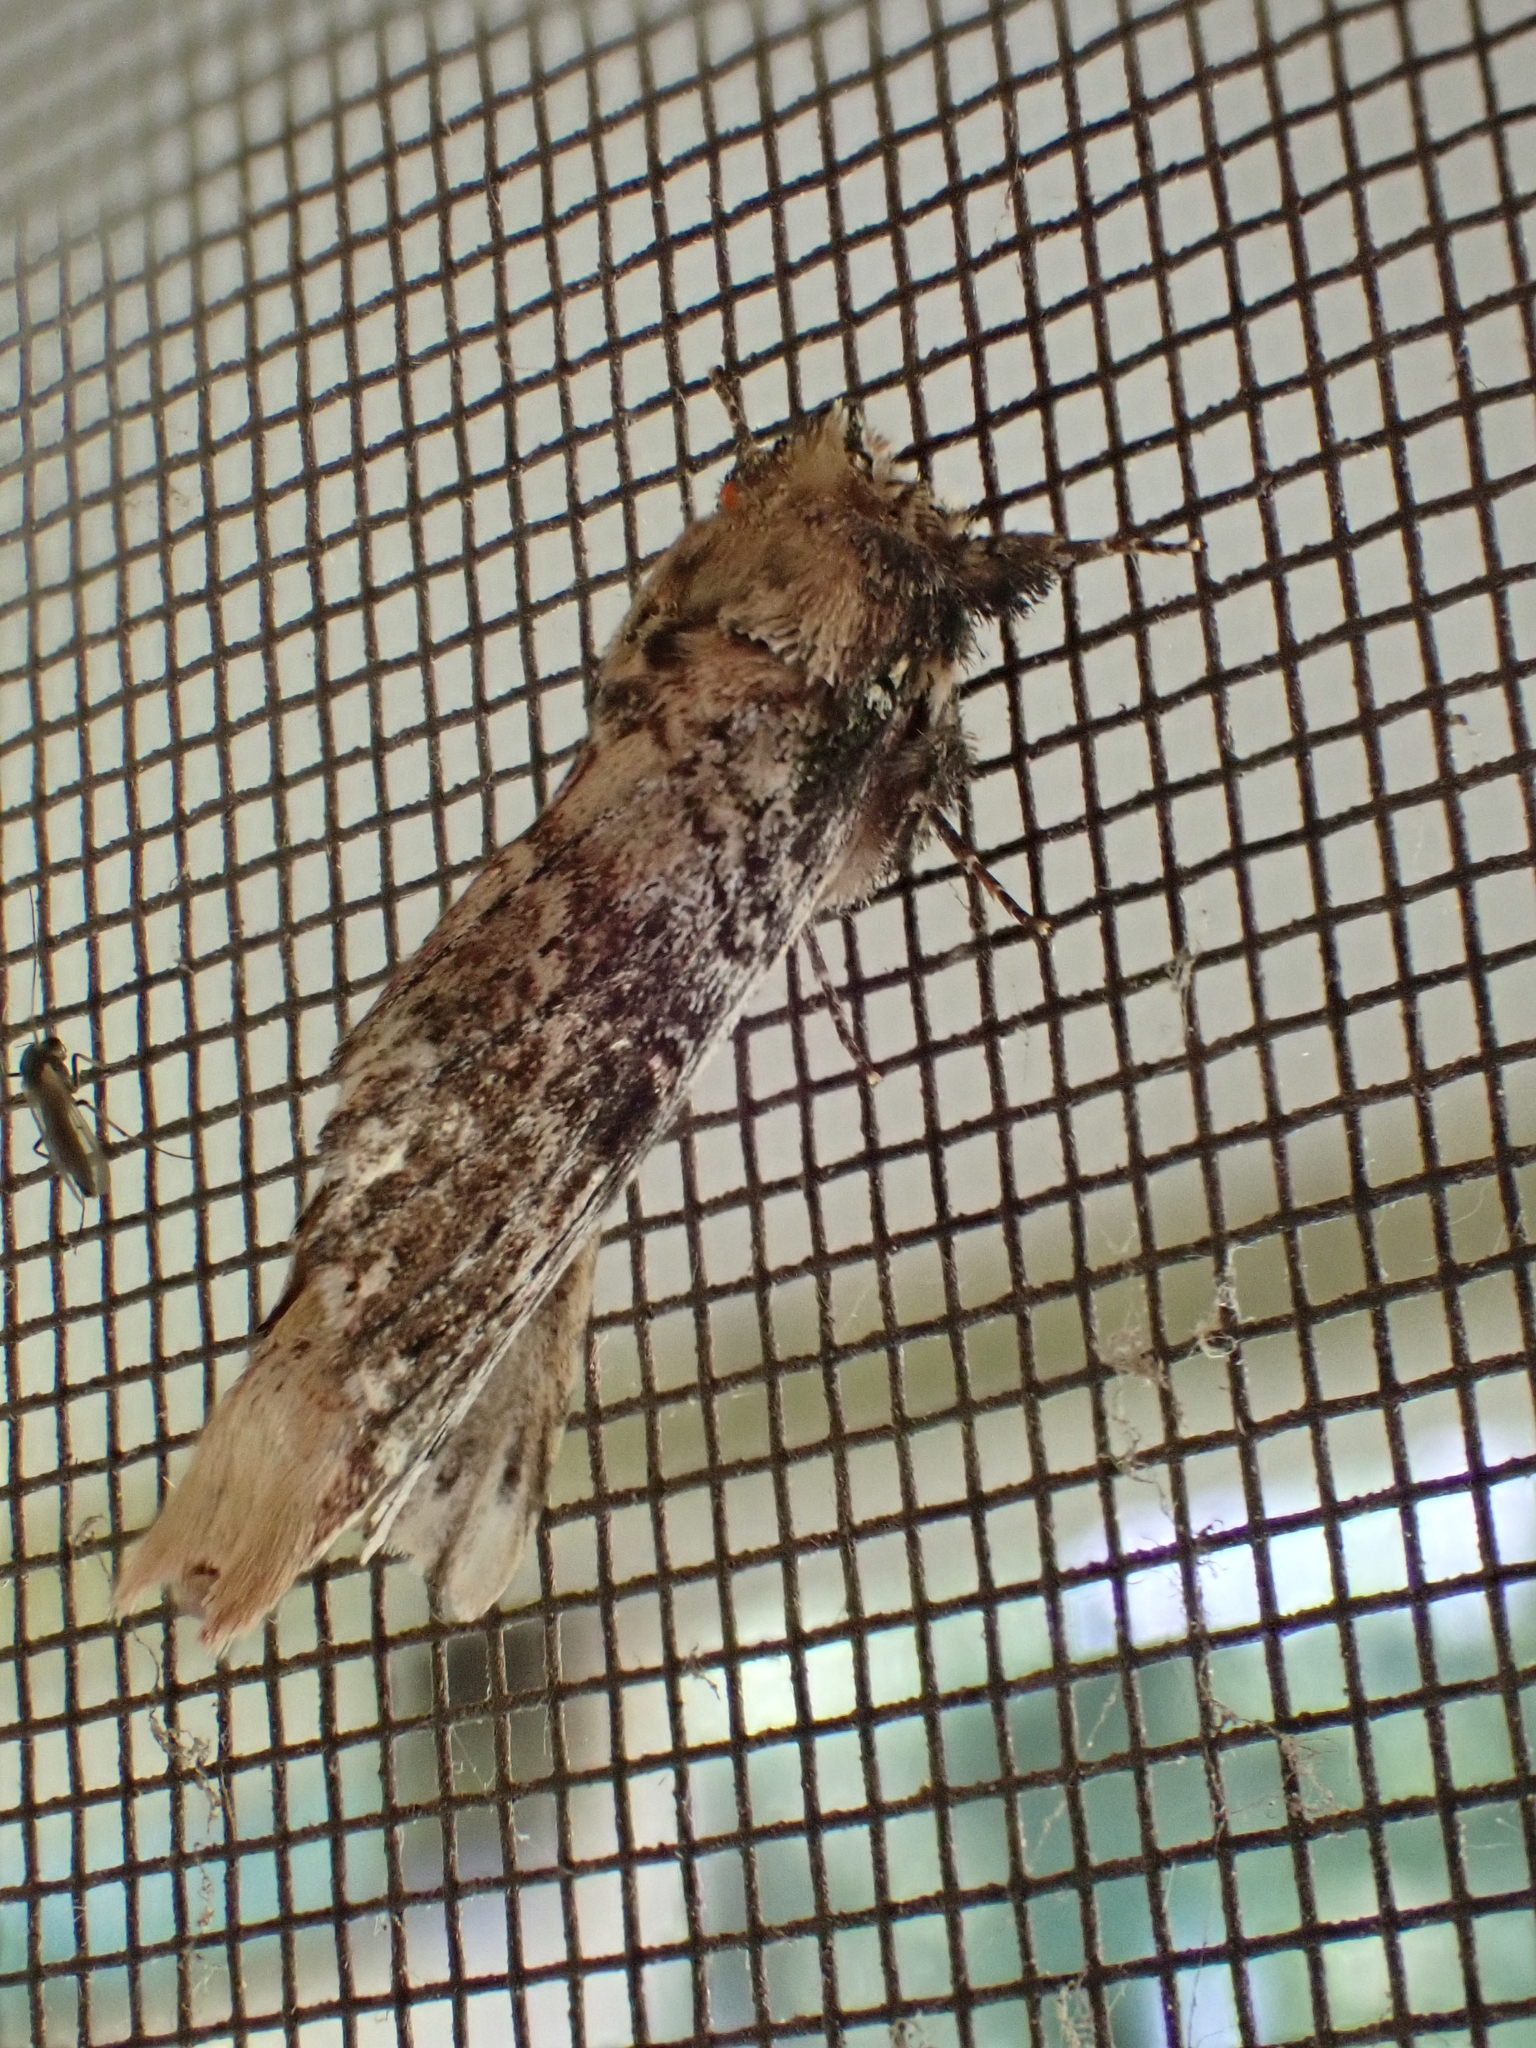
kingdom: Animalia
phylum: Arthropoda
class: Insecta
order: Lepidoptera
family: Notodontidae
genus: Schizura
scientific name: Schizura ipomaeae
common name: Morning-glory prominent
